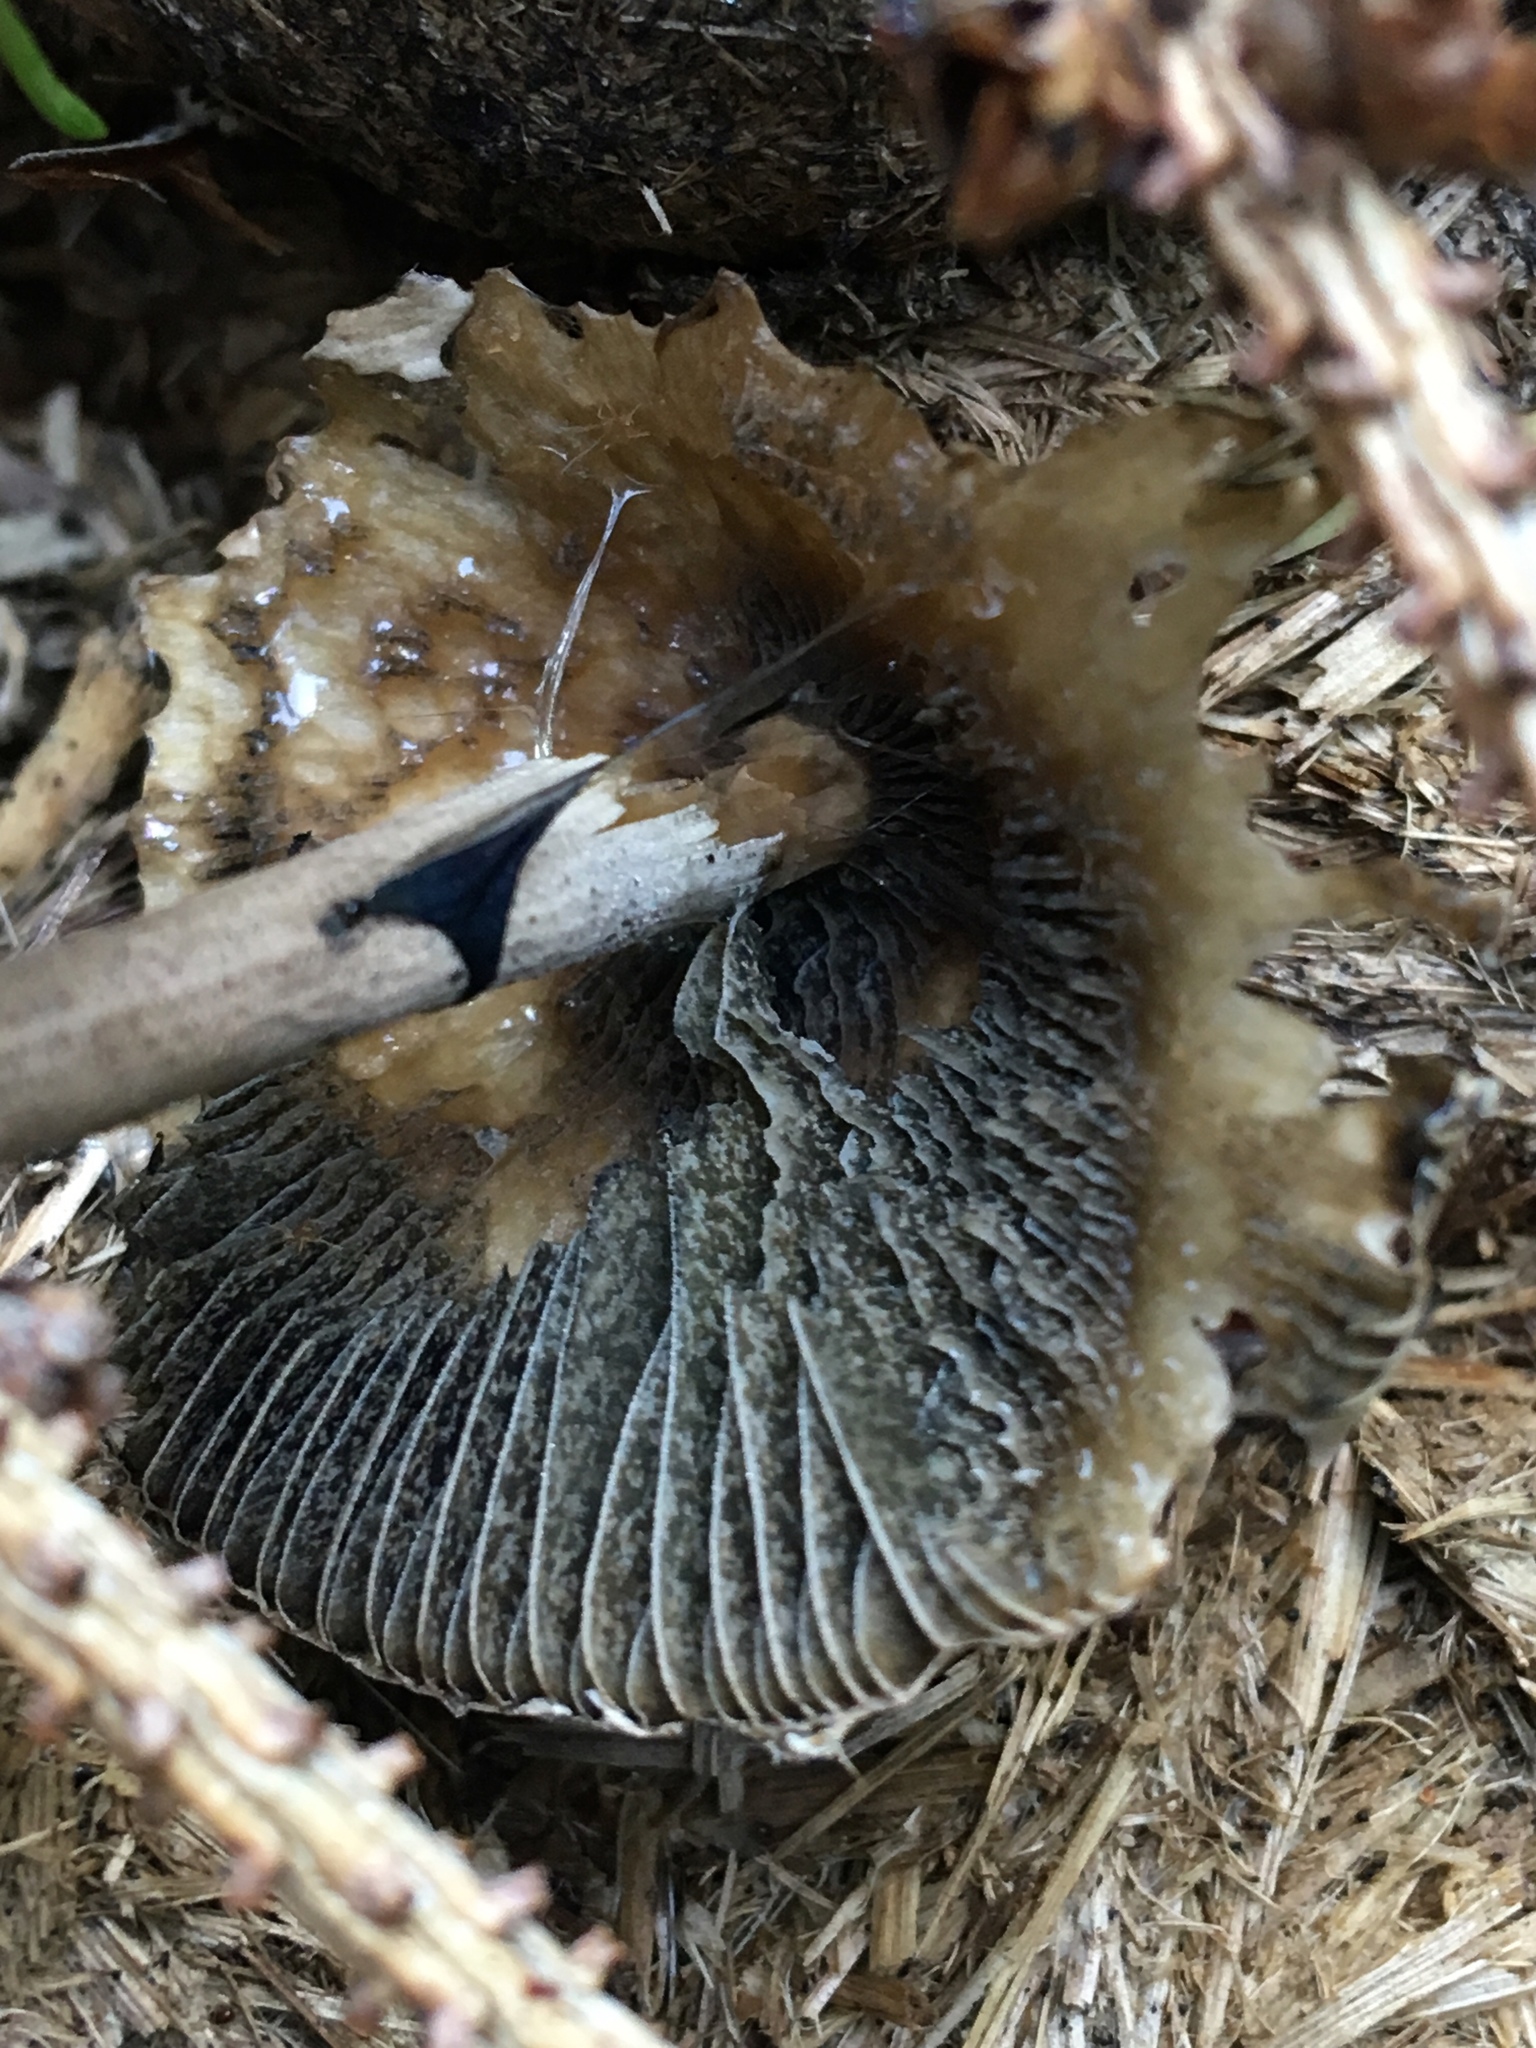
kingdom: Fungi
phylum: Basidiomycota
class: Agaricomycetes
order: Agaricales
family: Bolbitiaceae
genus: Panaeolus
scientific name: Panaeolus papilionaceus
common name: Petticoat mottlegill
